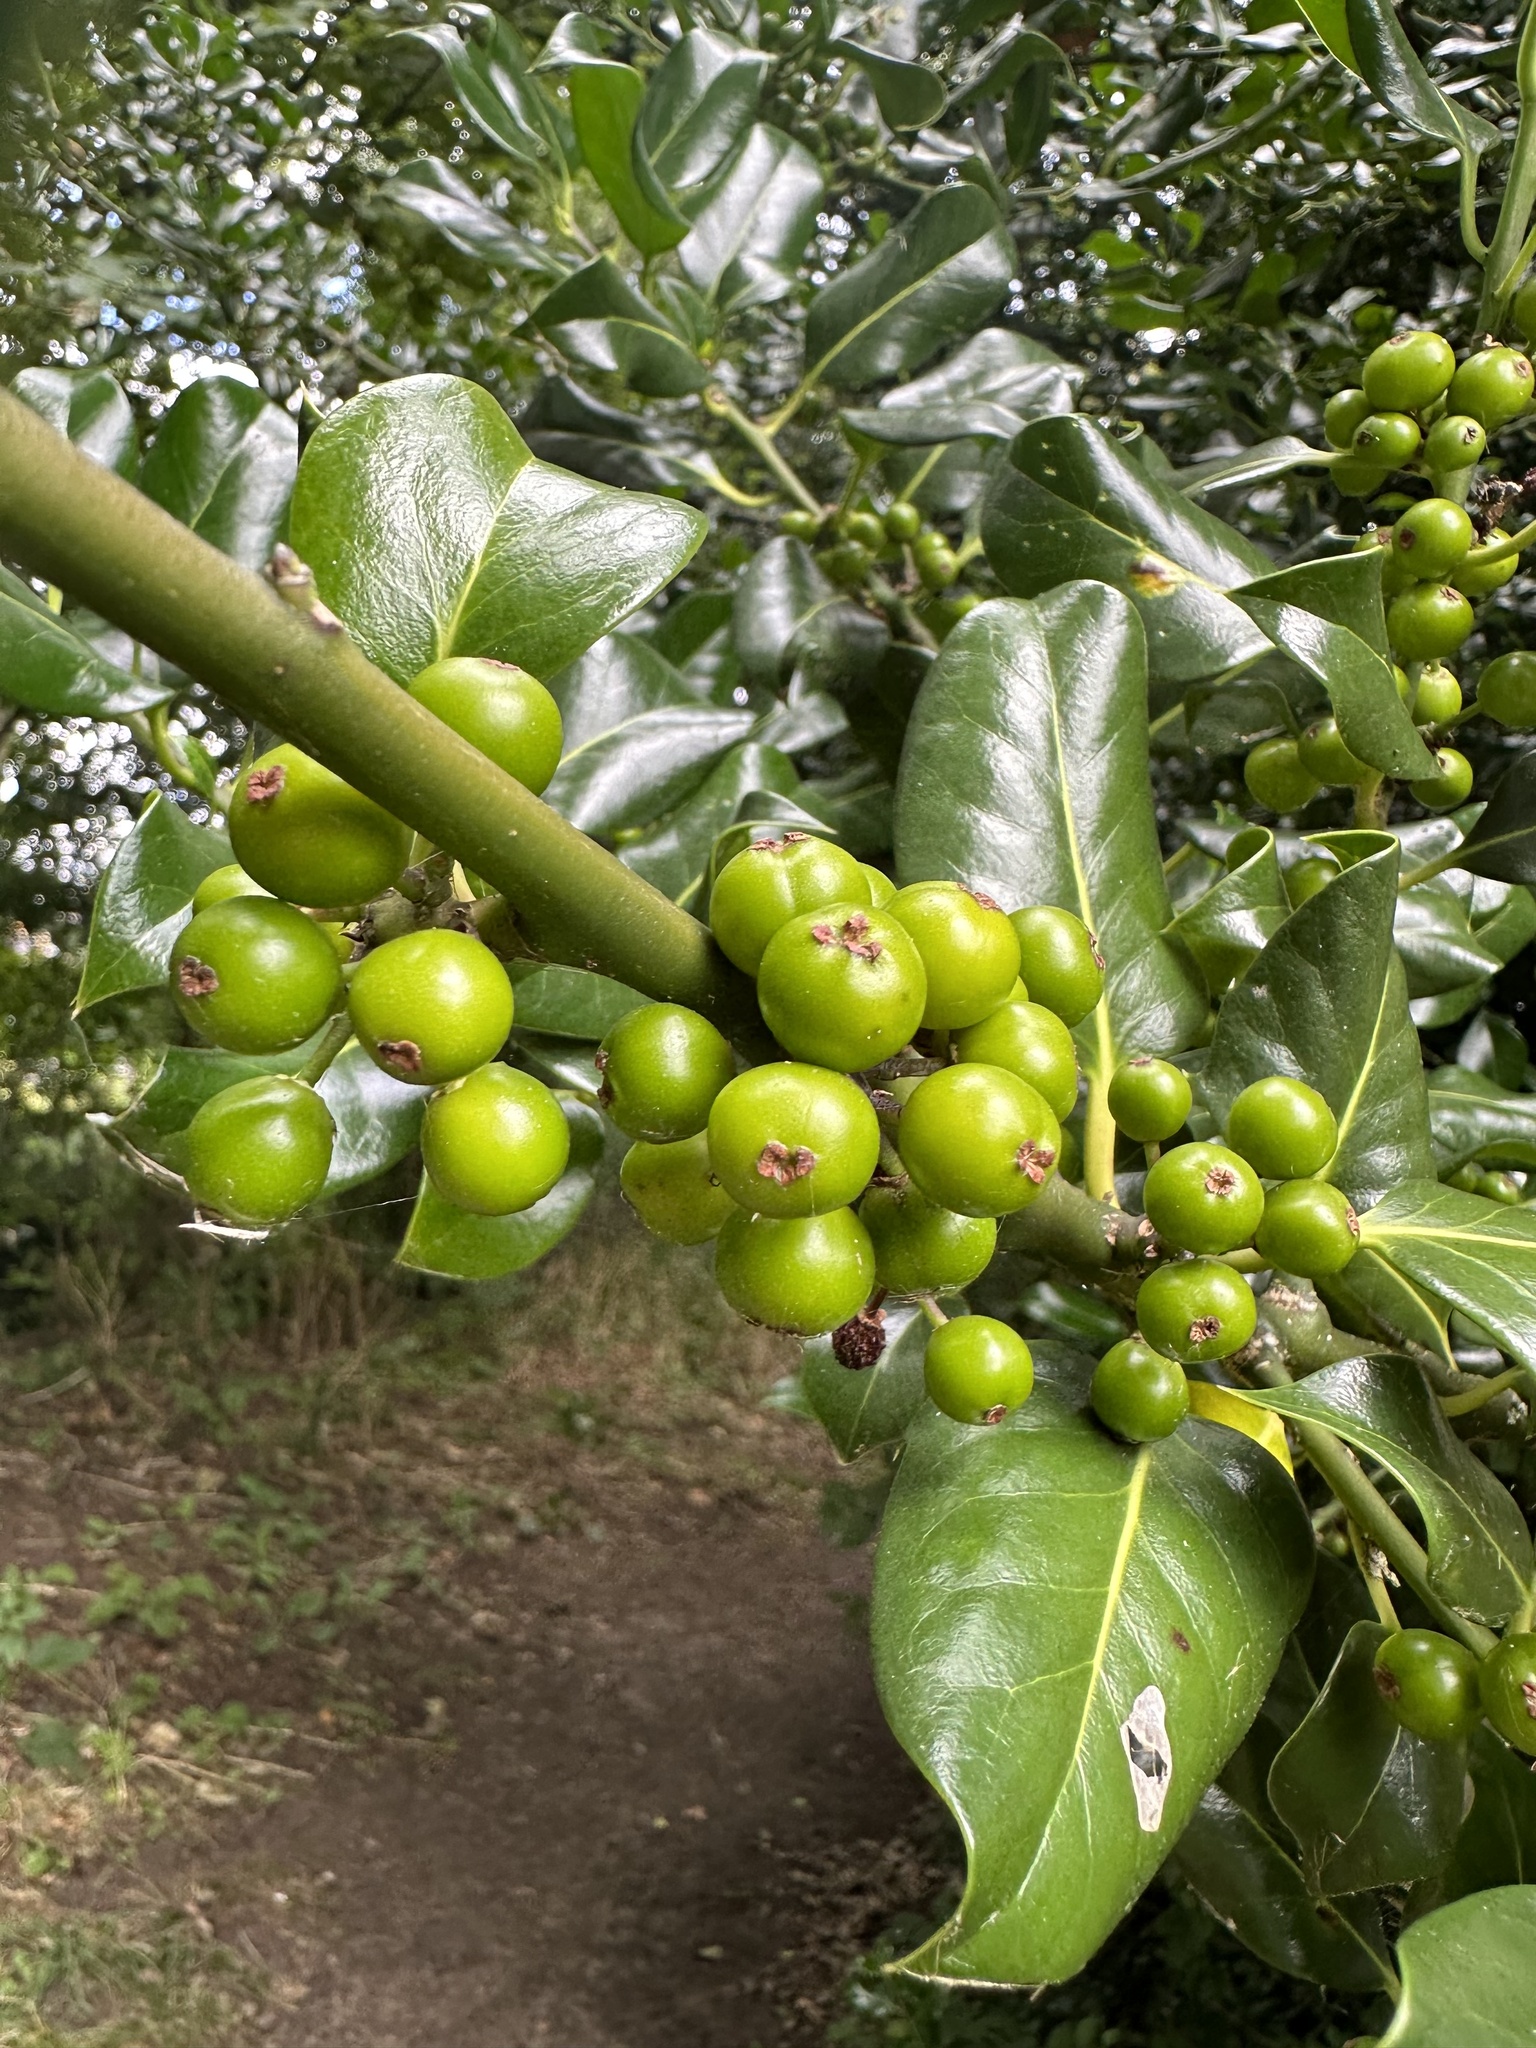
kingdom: Plantae
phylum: Tracheophyta
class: Magnoliopsida
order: Aquifoliales
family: Aquifoliaceae
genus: Ilex
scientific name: Ilex aquifolium
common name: English holly
